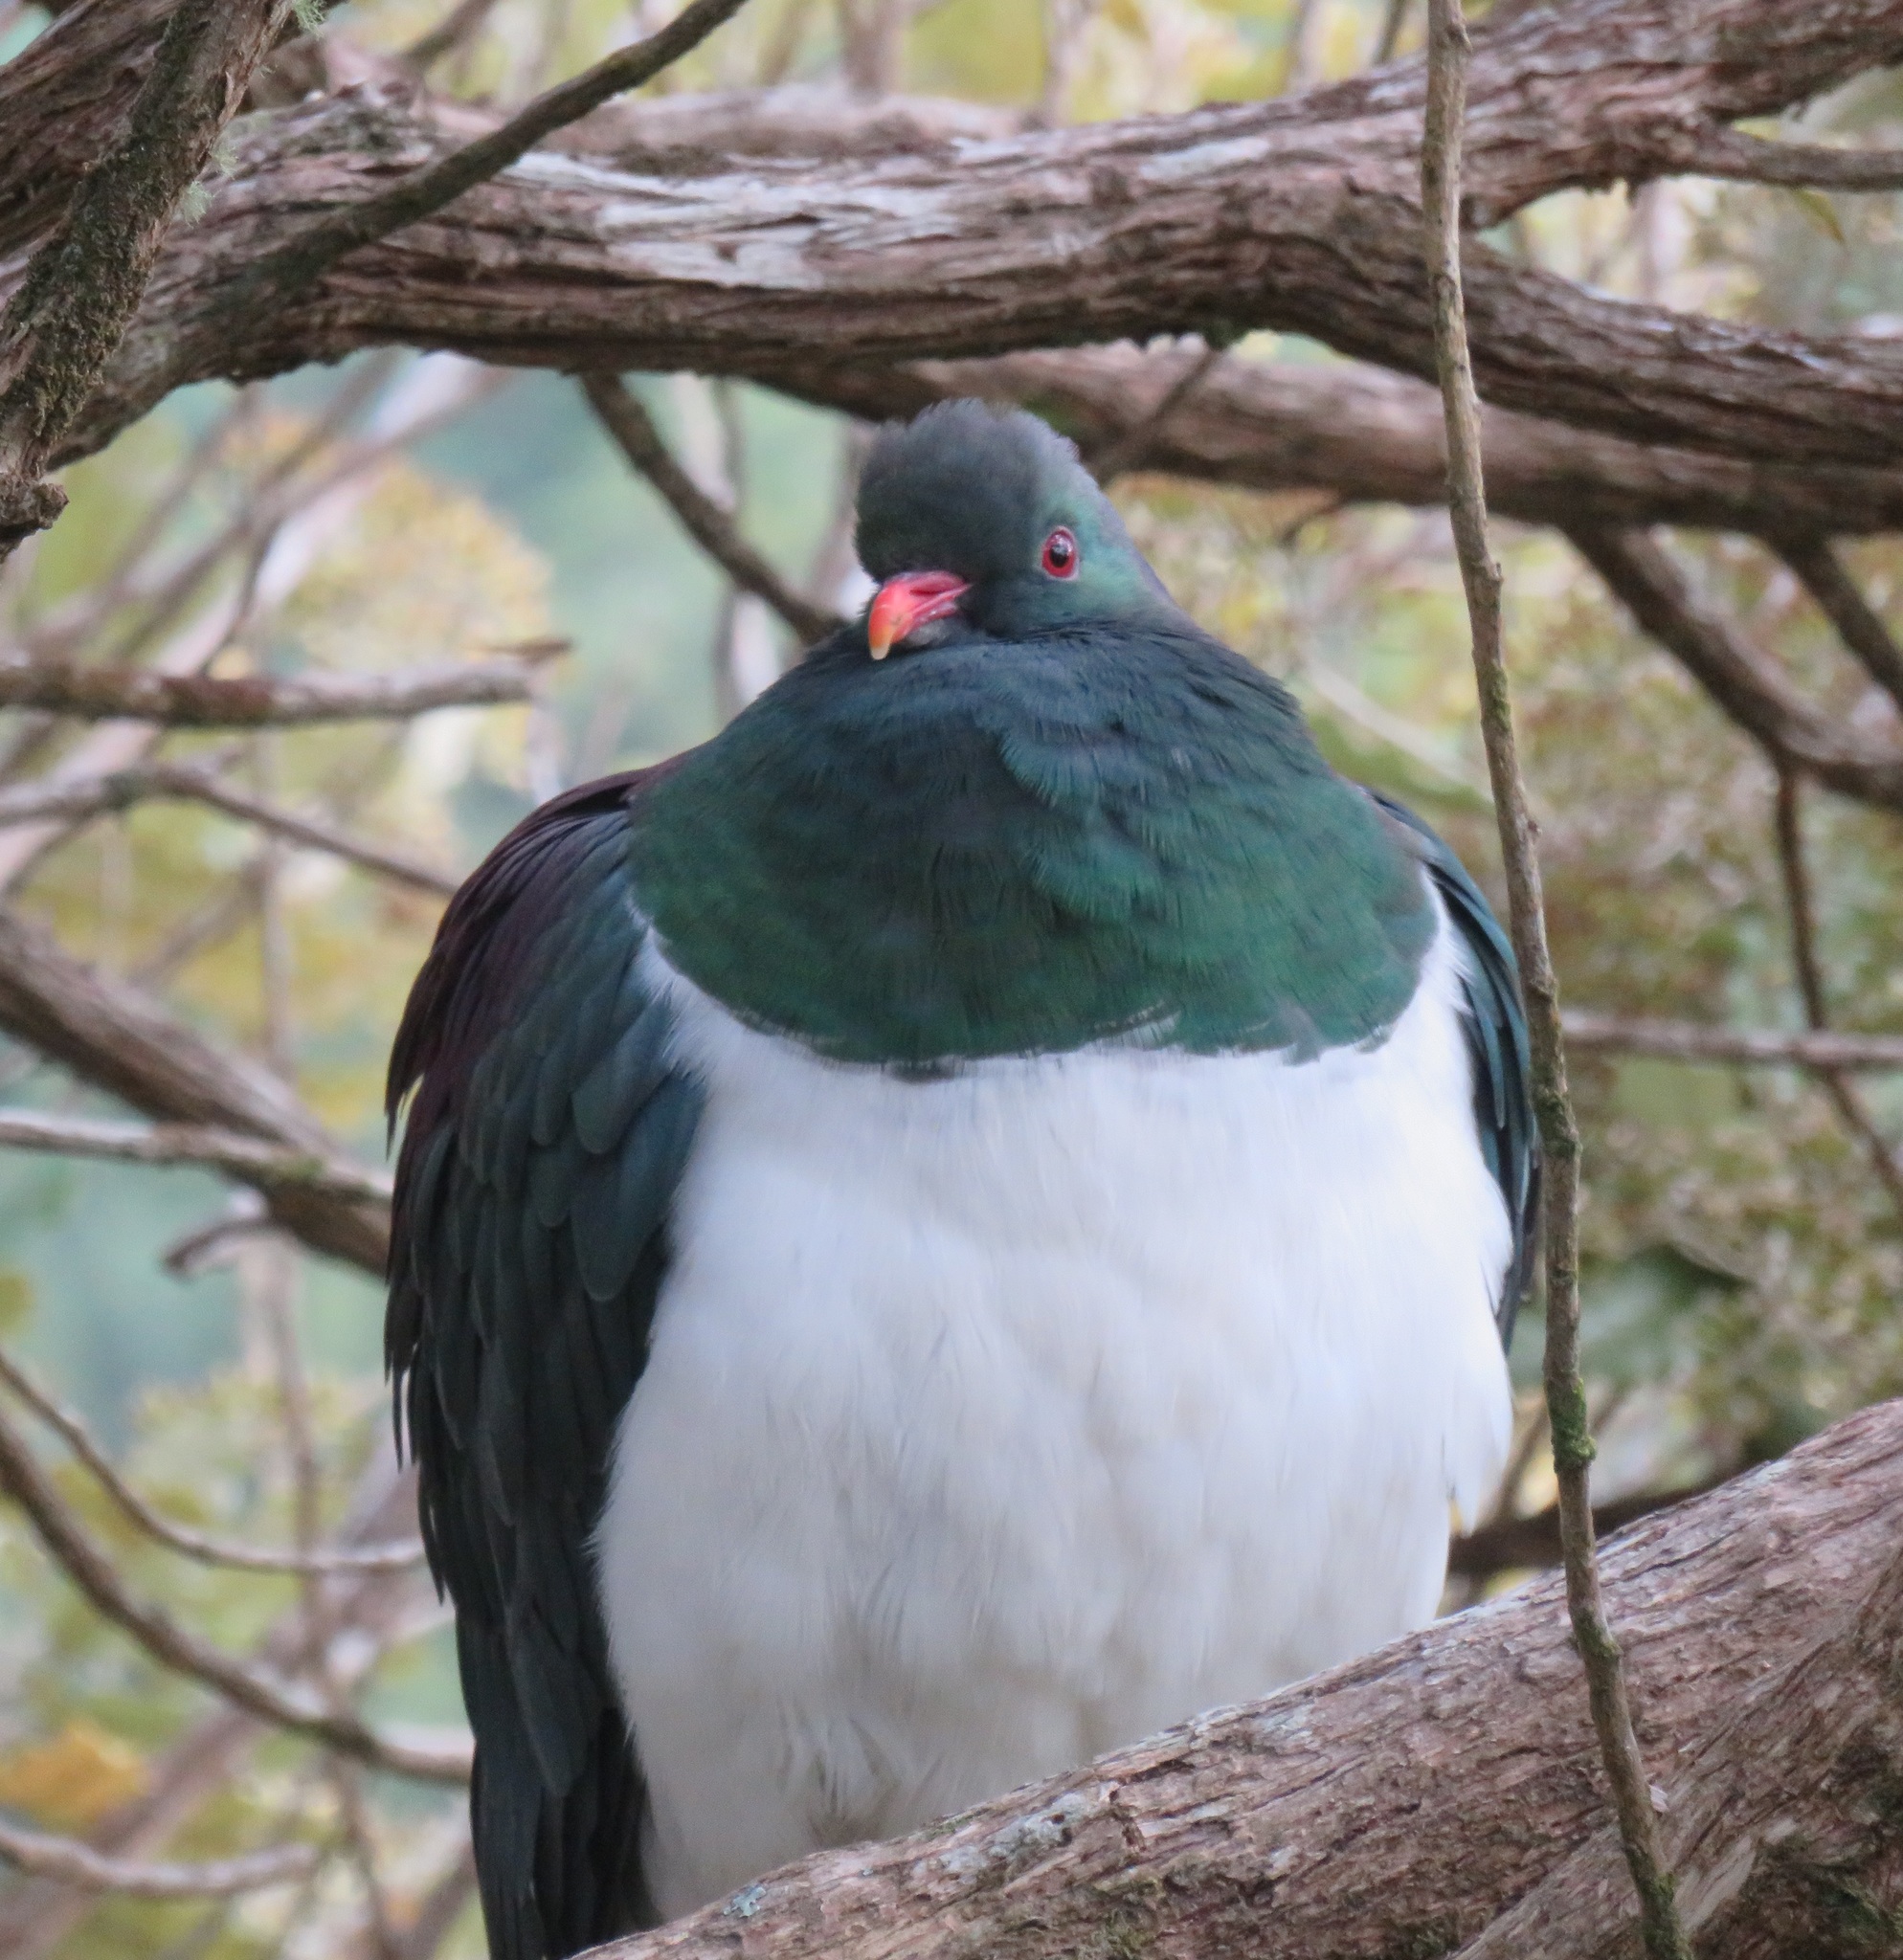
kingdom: Animalia
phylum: Chordata
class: Aves
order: Columbiformes
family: Columbidae
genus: Hemiphaga
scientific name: Hemiphaga novaeseelandiae
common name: New zealand pigeon
